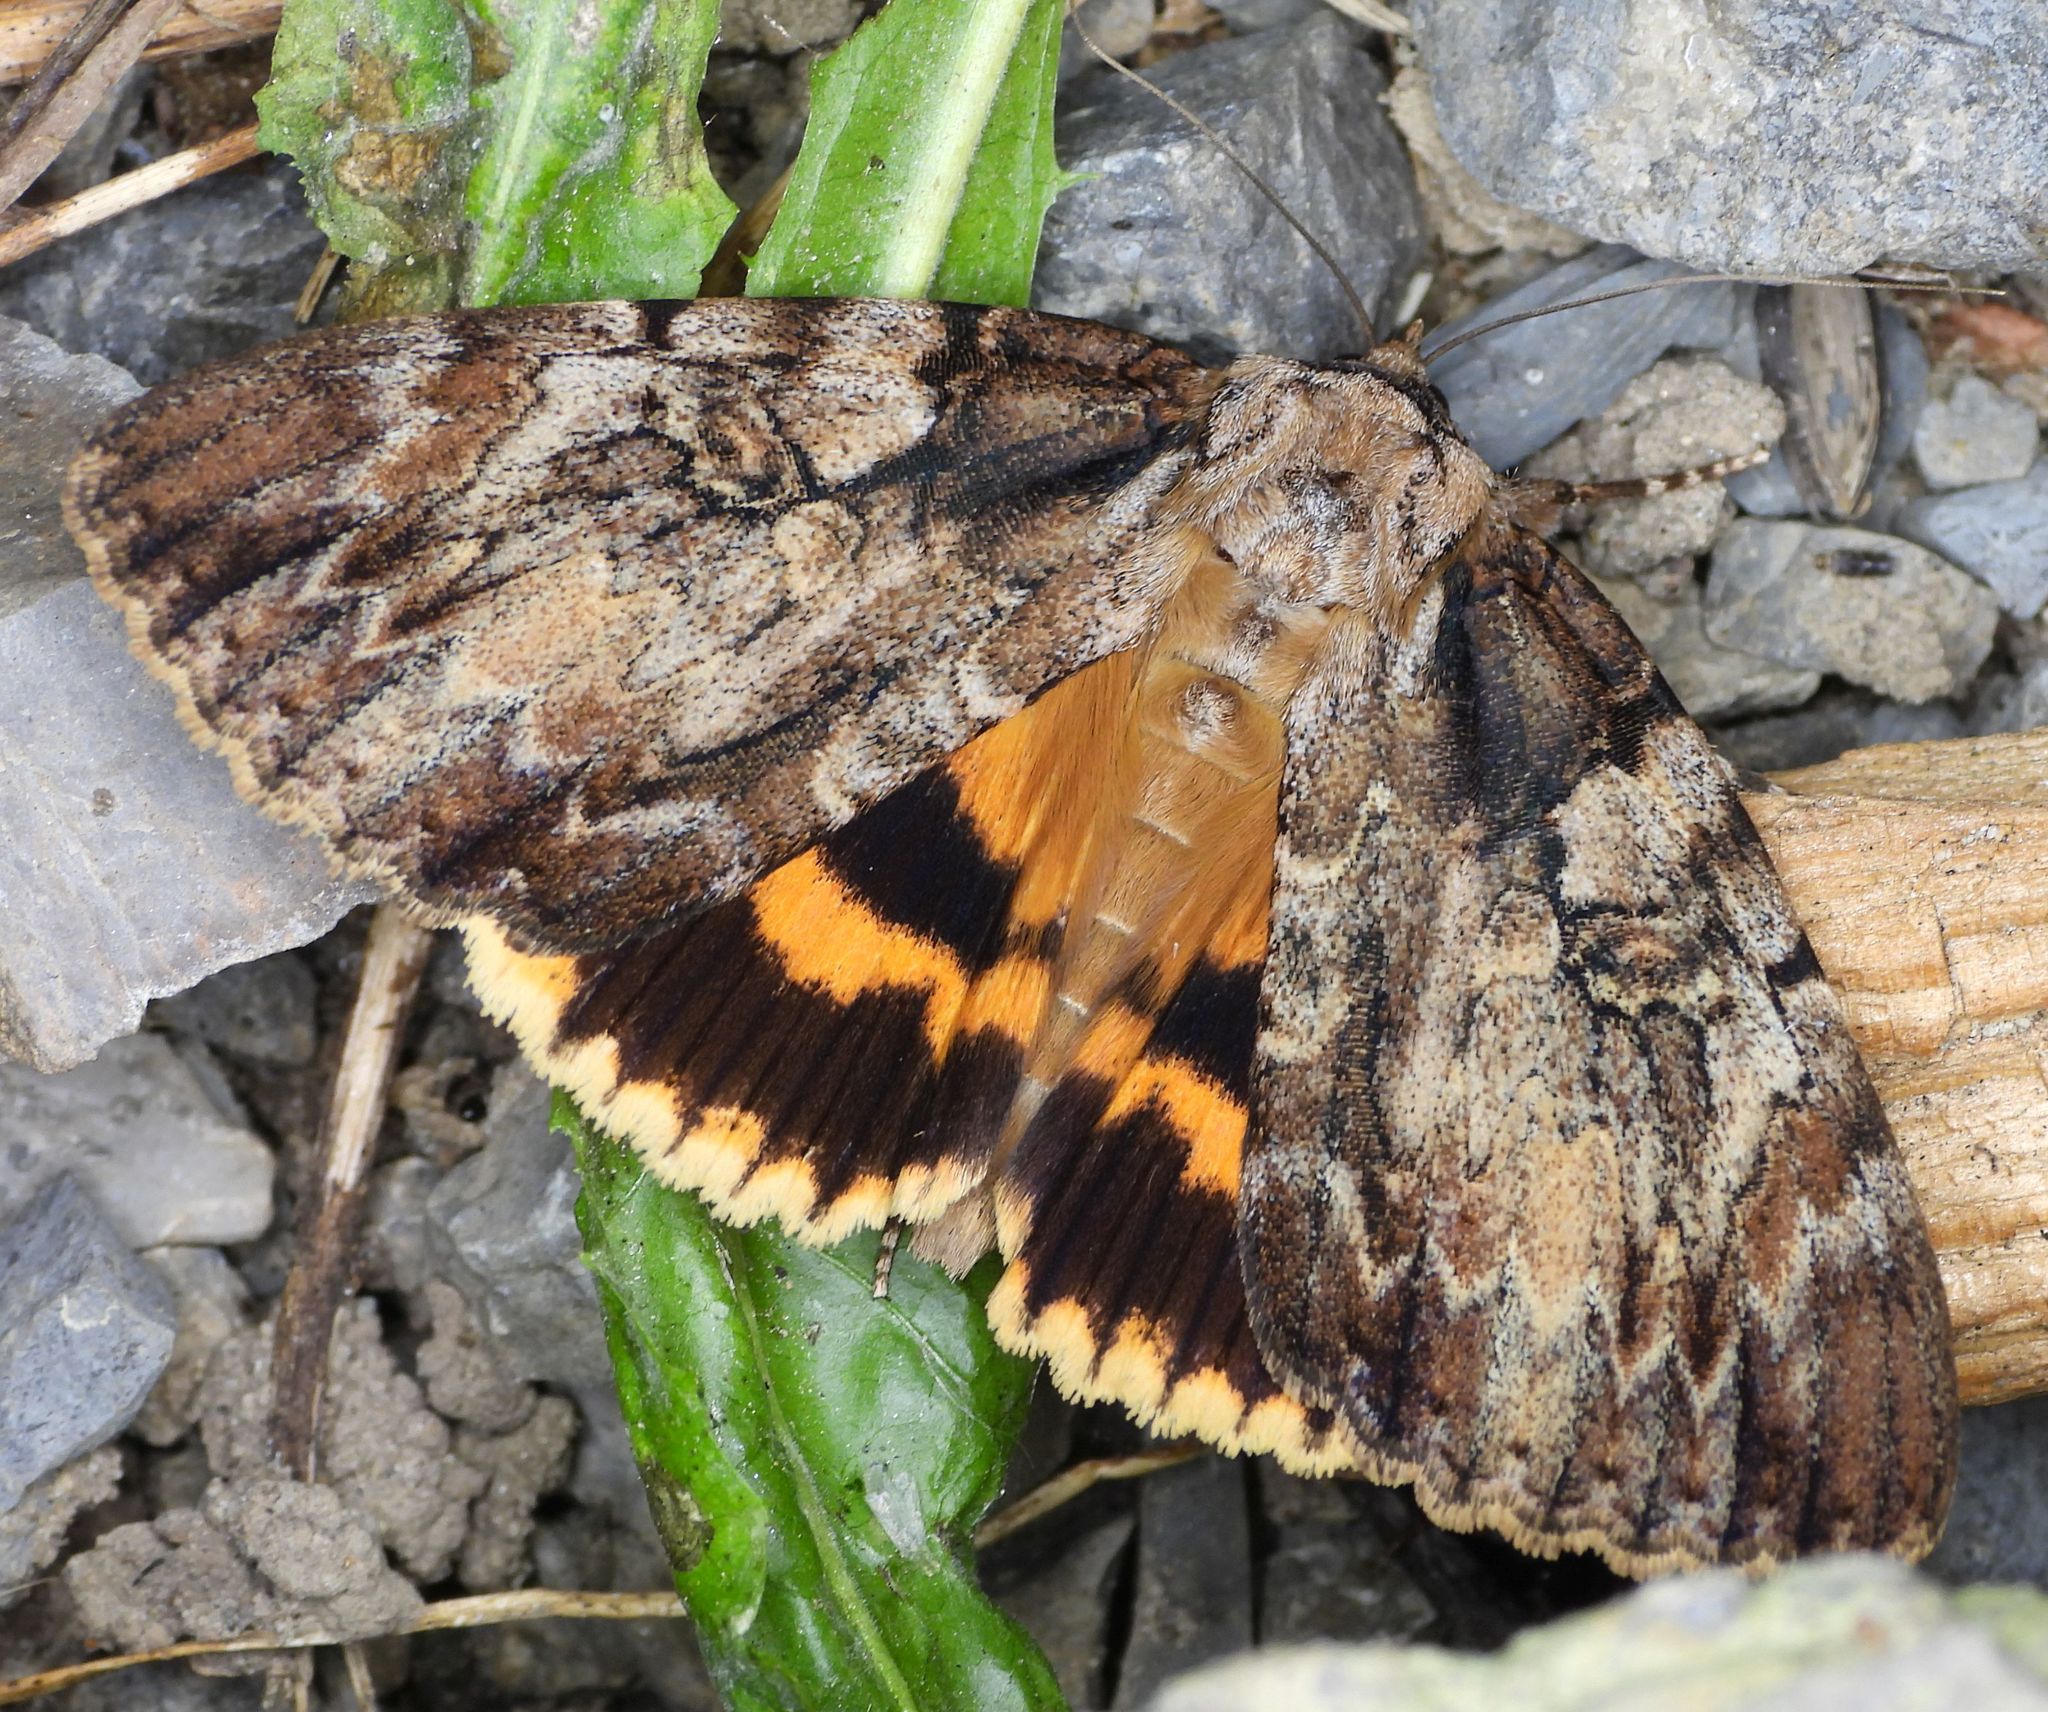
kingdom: Animalia
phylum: Arthropoda
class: Insecta
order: Lepidoptera
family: Erebidae
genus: Catocala
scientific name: Catocala neogama
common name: Bride underwing
